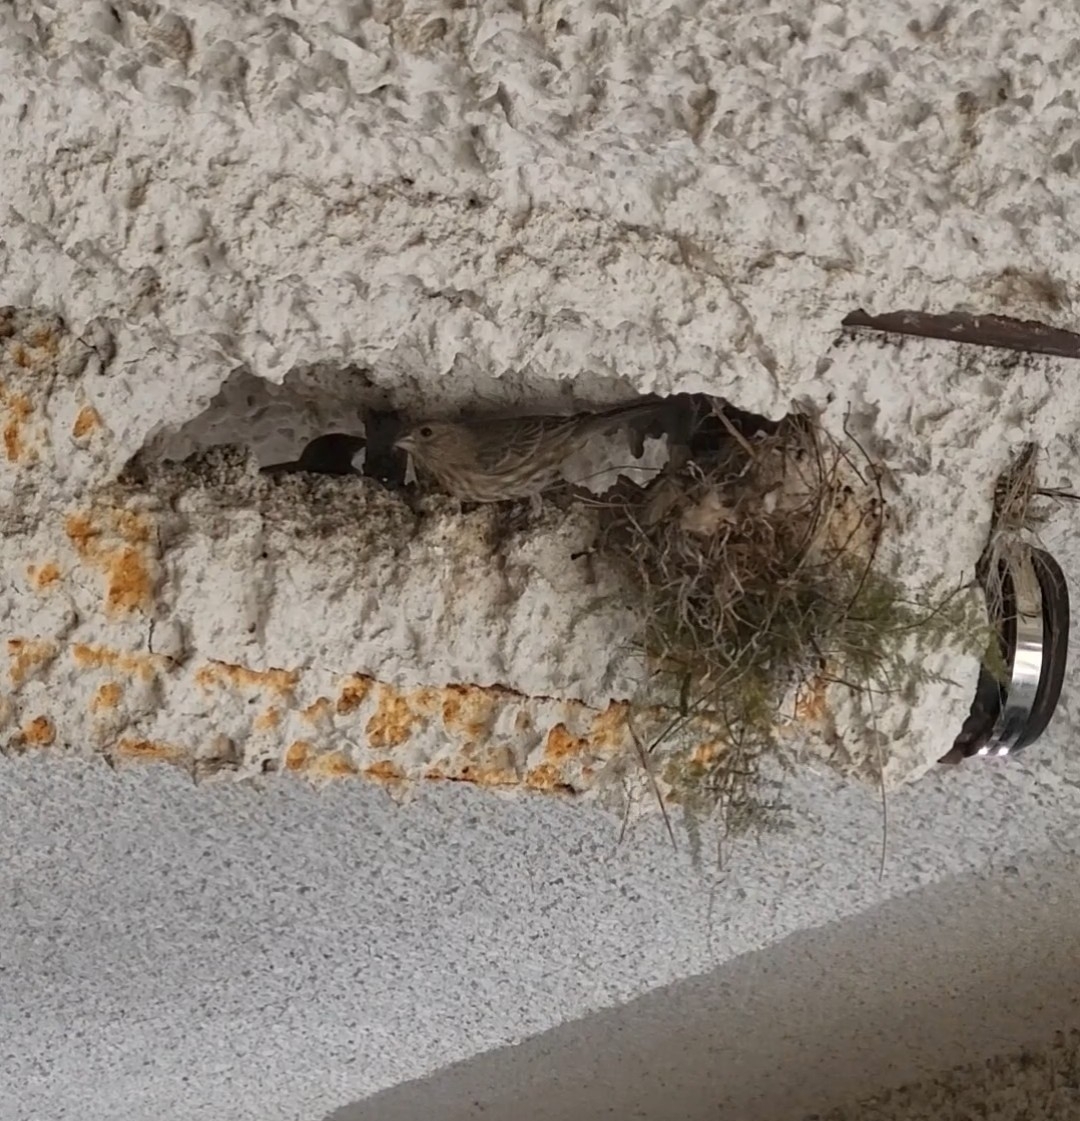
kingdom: Animalia
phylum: Chordata
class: Aves
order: Passeriformes
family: Fringillidae
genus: Haemorhous
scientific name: Haemorhous mexicanus
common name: House finch
